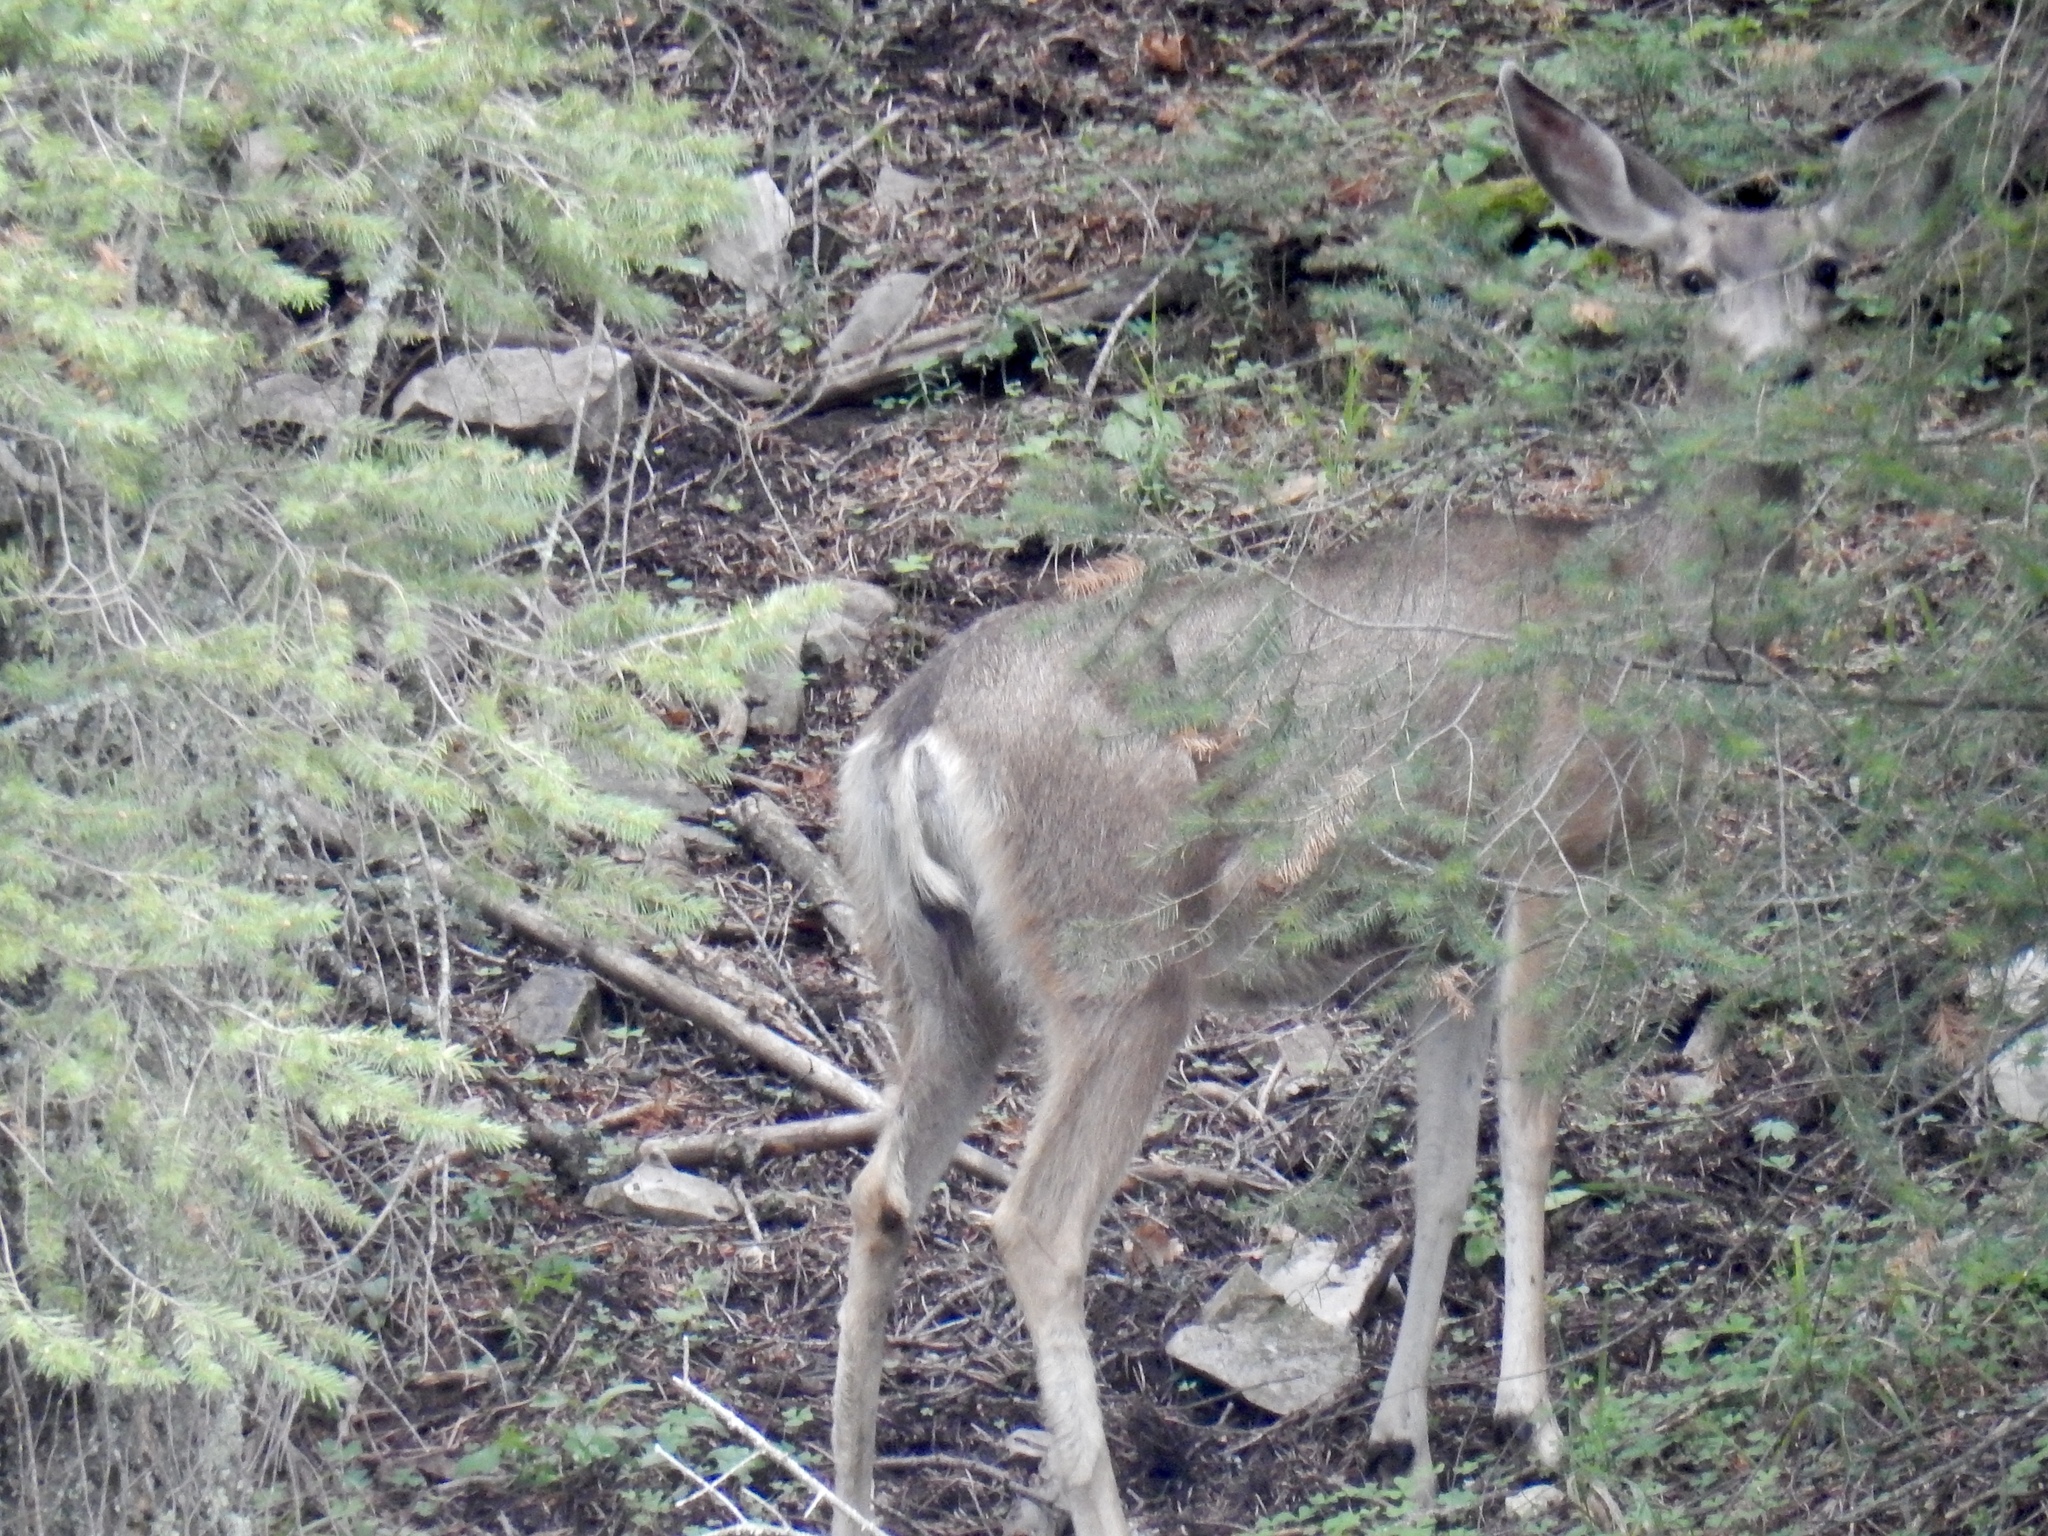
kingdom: Animalia
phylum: Chordata
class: Mammalia
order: Artiodactyla
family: Cervidae
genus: Odocoileus
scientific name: Odocoileus hemionus
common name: Mule deer
